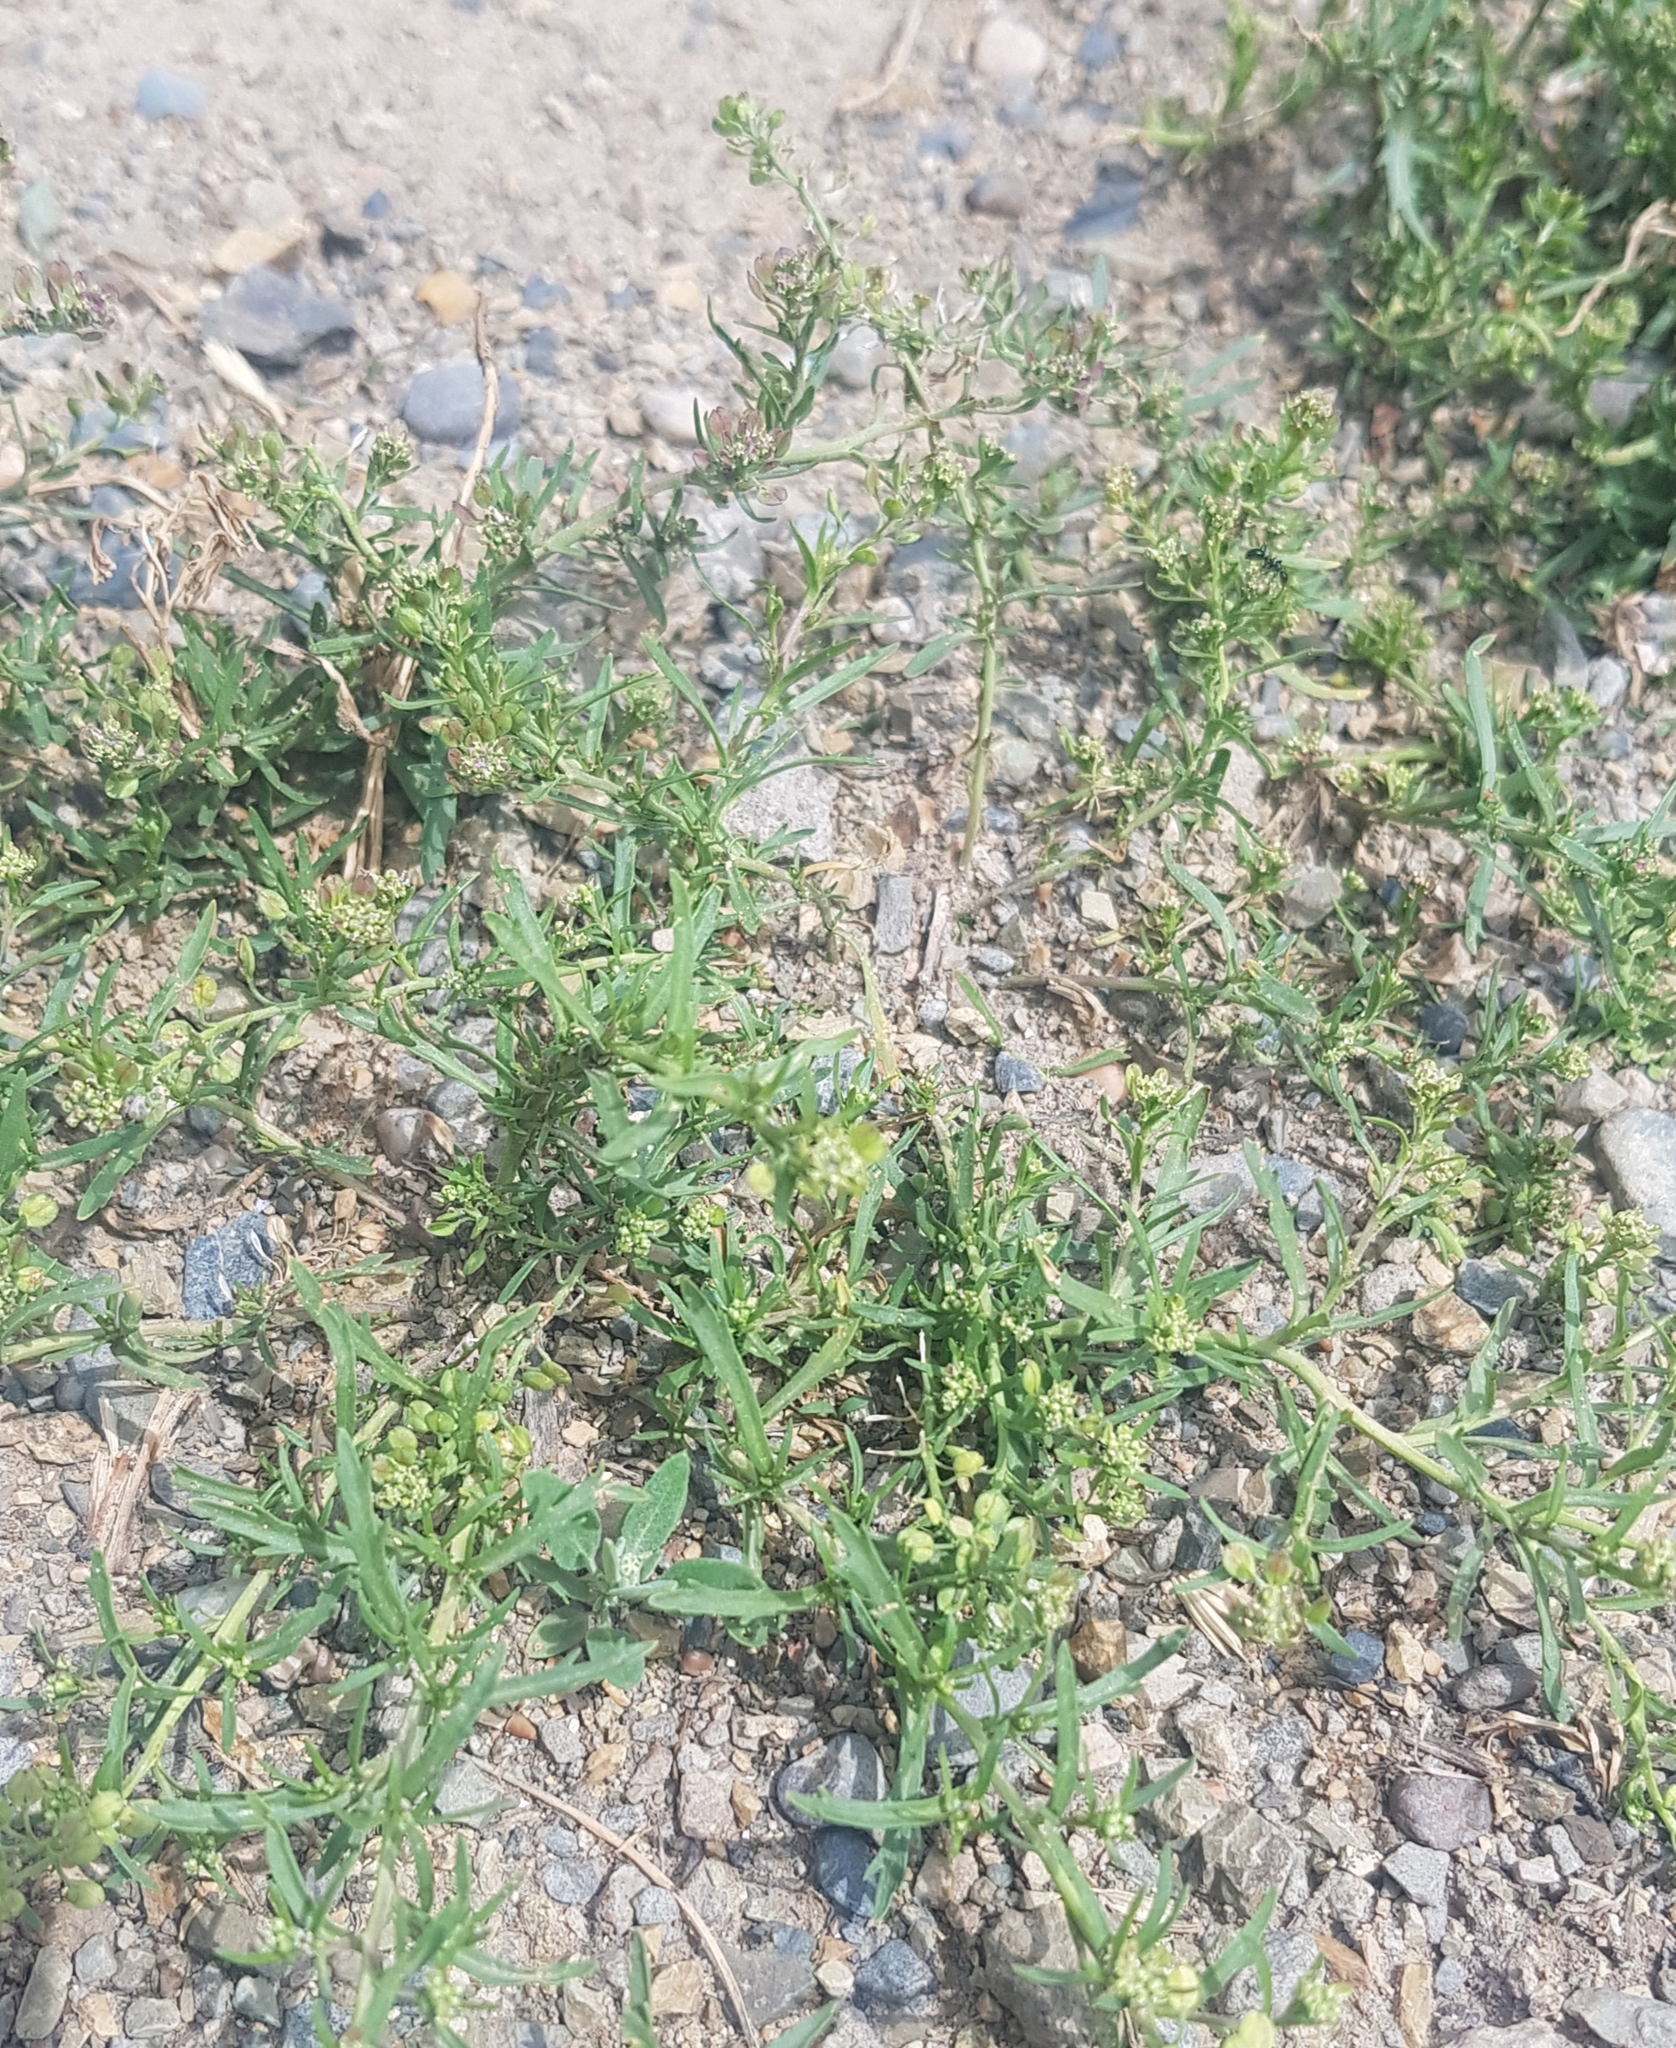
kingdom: Plantae
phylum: Tracheophyta
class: Magnoliopsida
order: Brassicales
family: Brassicaceae
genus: Lepidium
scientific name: Lepidium ruderale
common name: Narrow-leaved pepperwort
